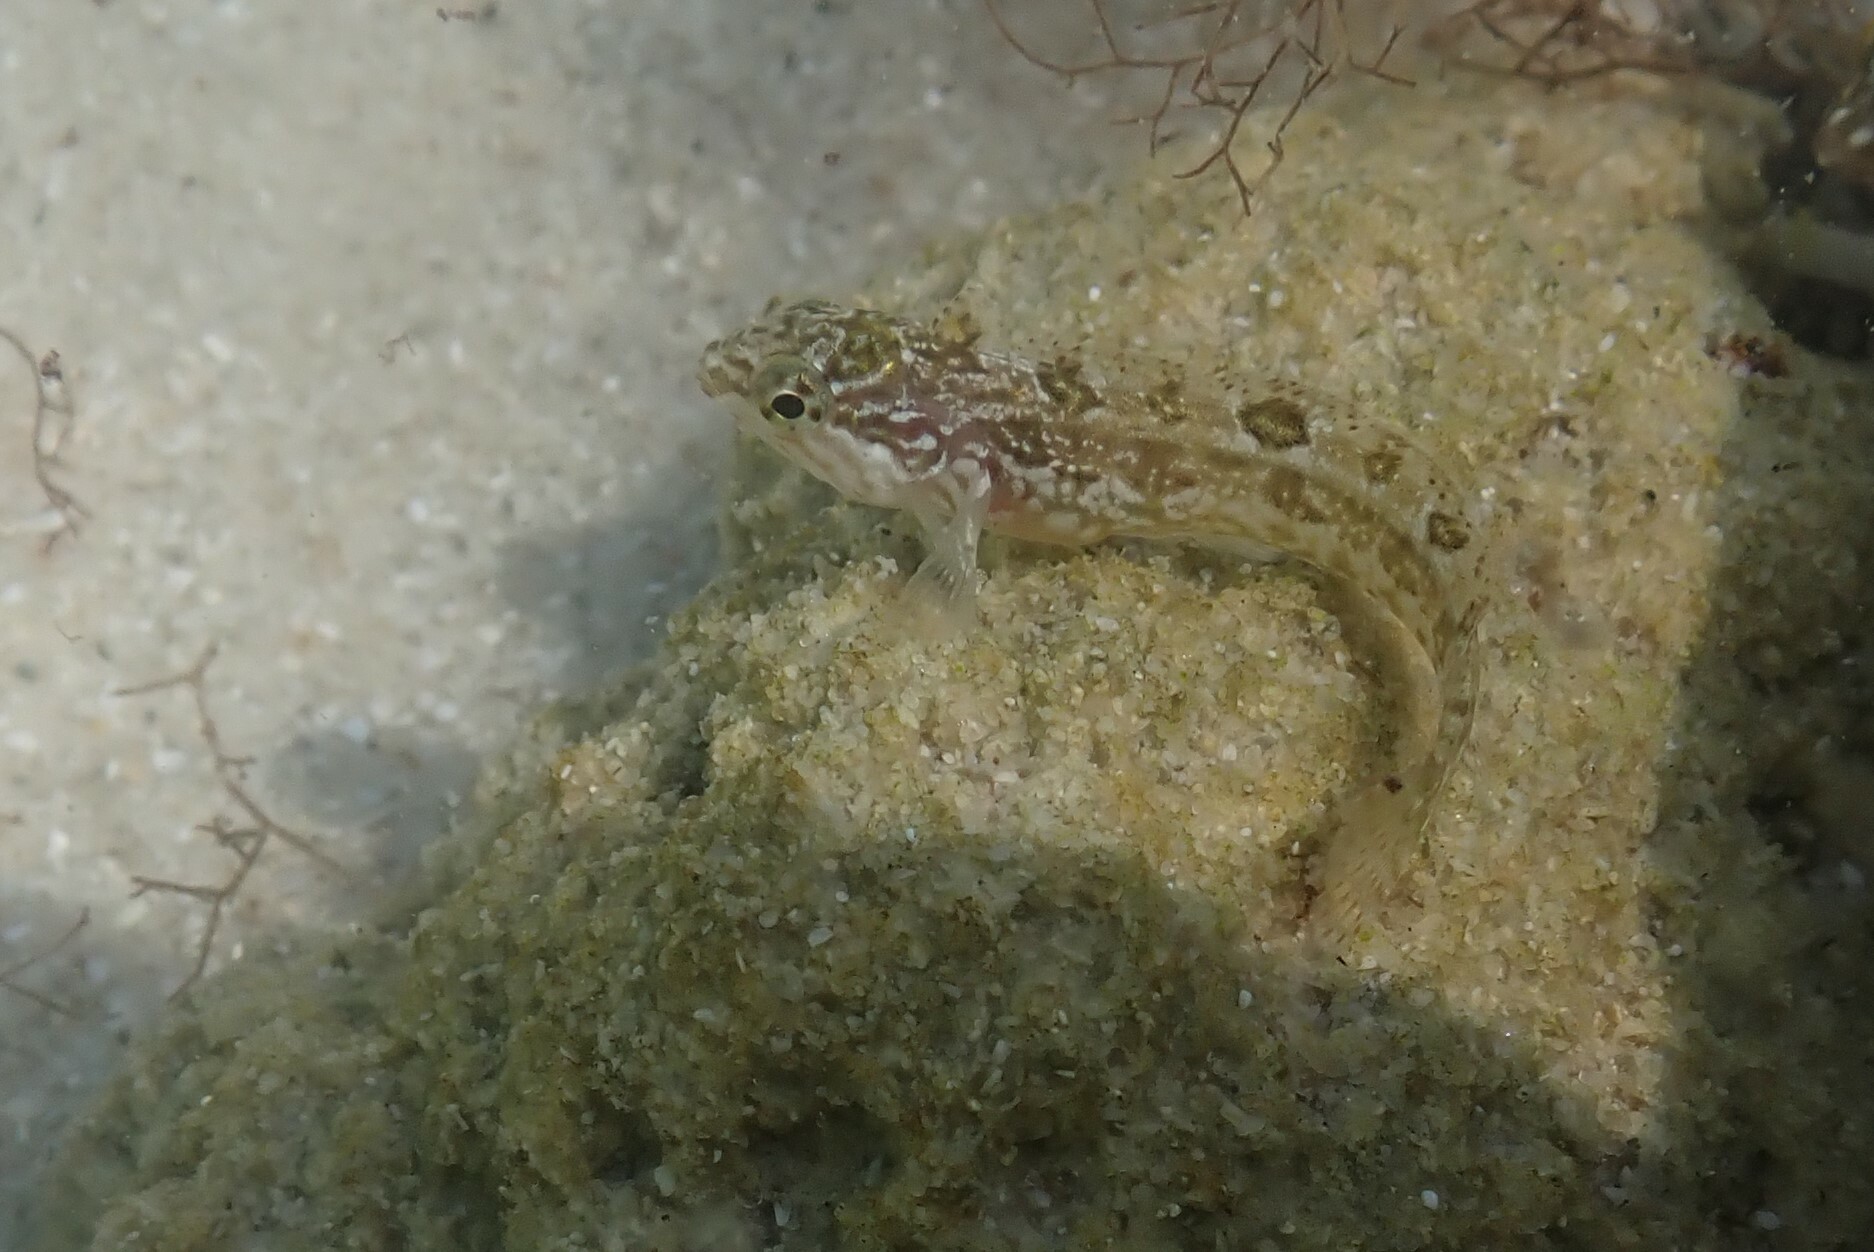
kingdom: Animalia
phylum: Chordata
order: Perciformes
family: Clinidae
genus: Clinus
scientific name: Clinus superciliosus
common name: Super klipfish
